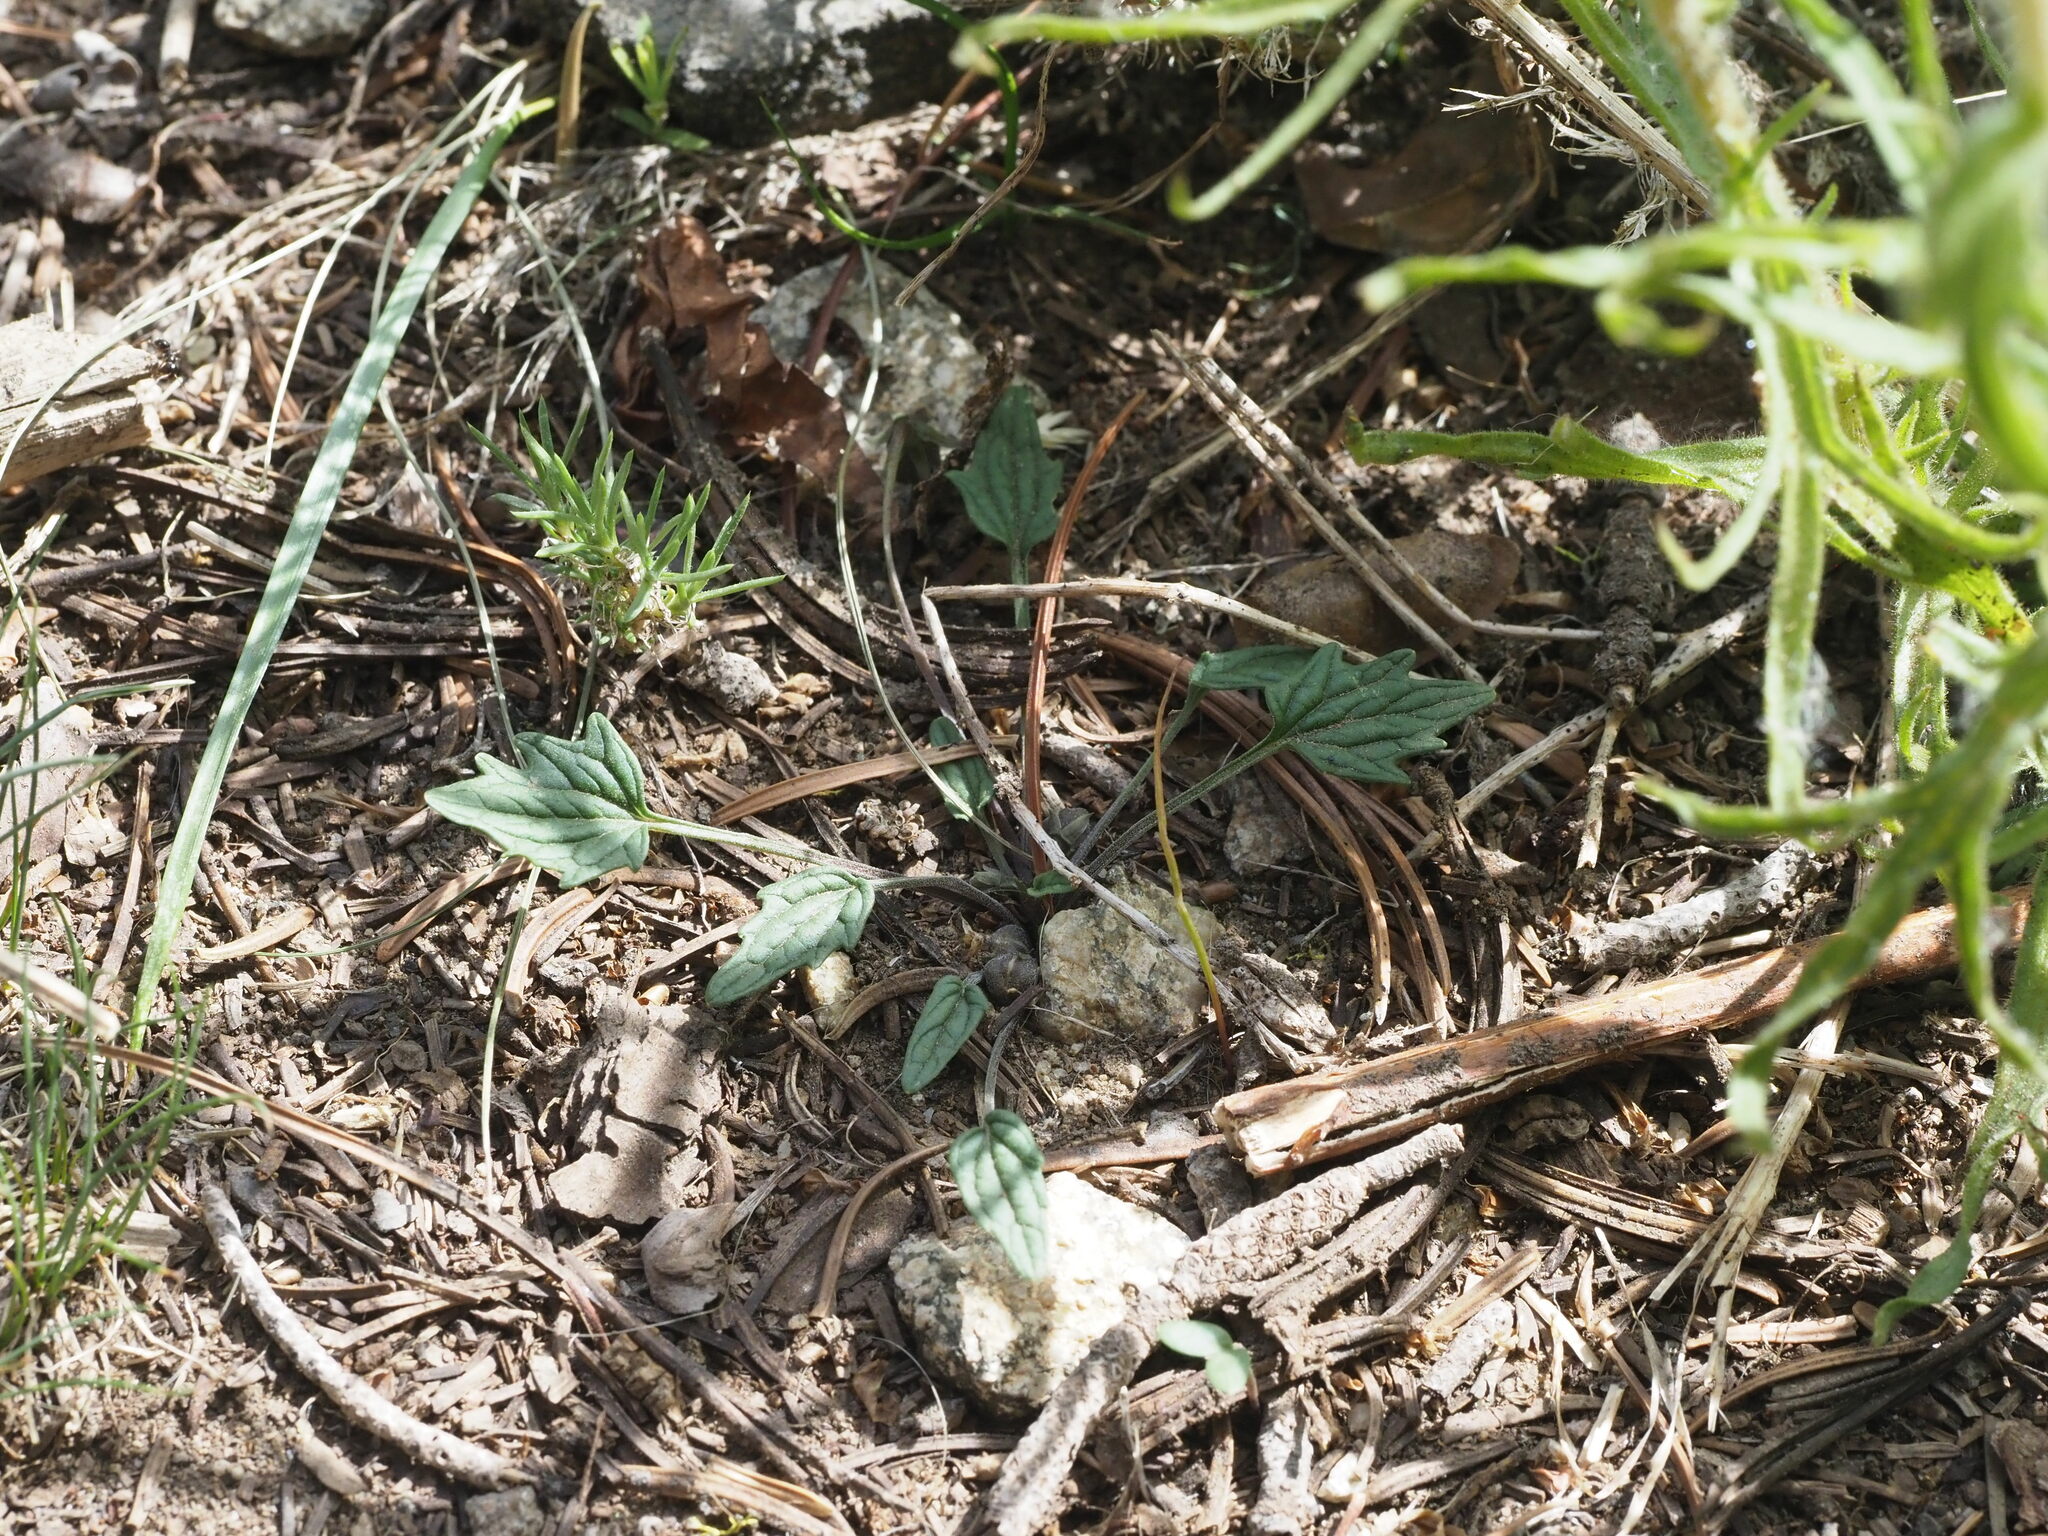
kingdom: Plantae
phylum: Tracheophyta
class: Magnoliopsida
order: Malpighiales
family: Violaceae
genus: Viola
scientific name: Viola purpurea
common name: Pine violet
